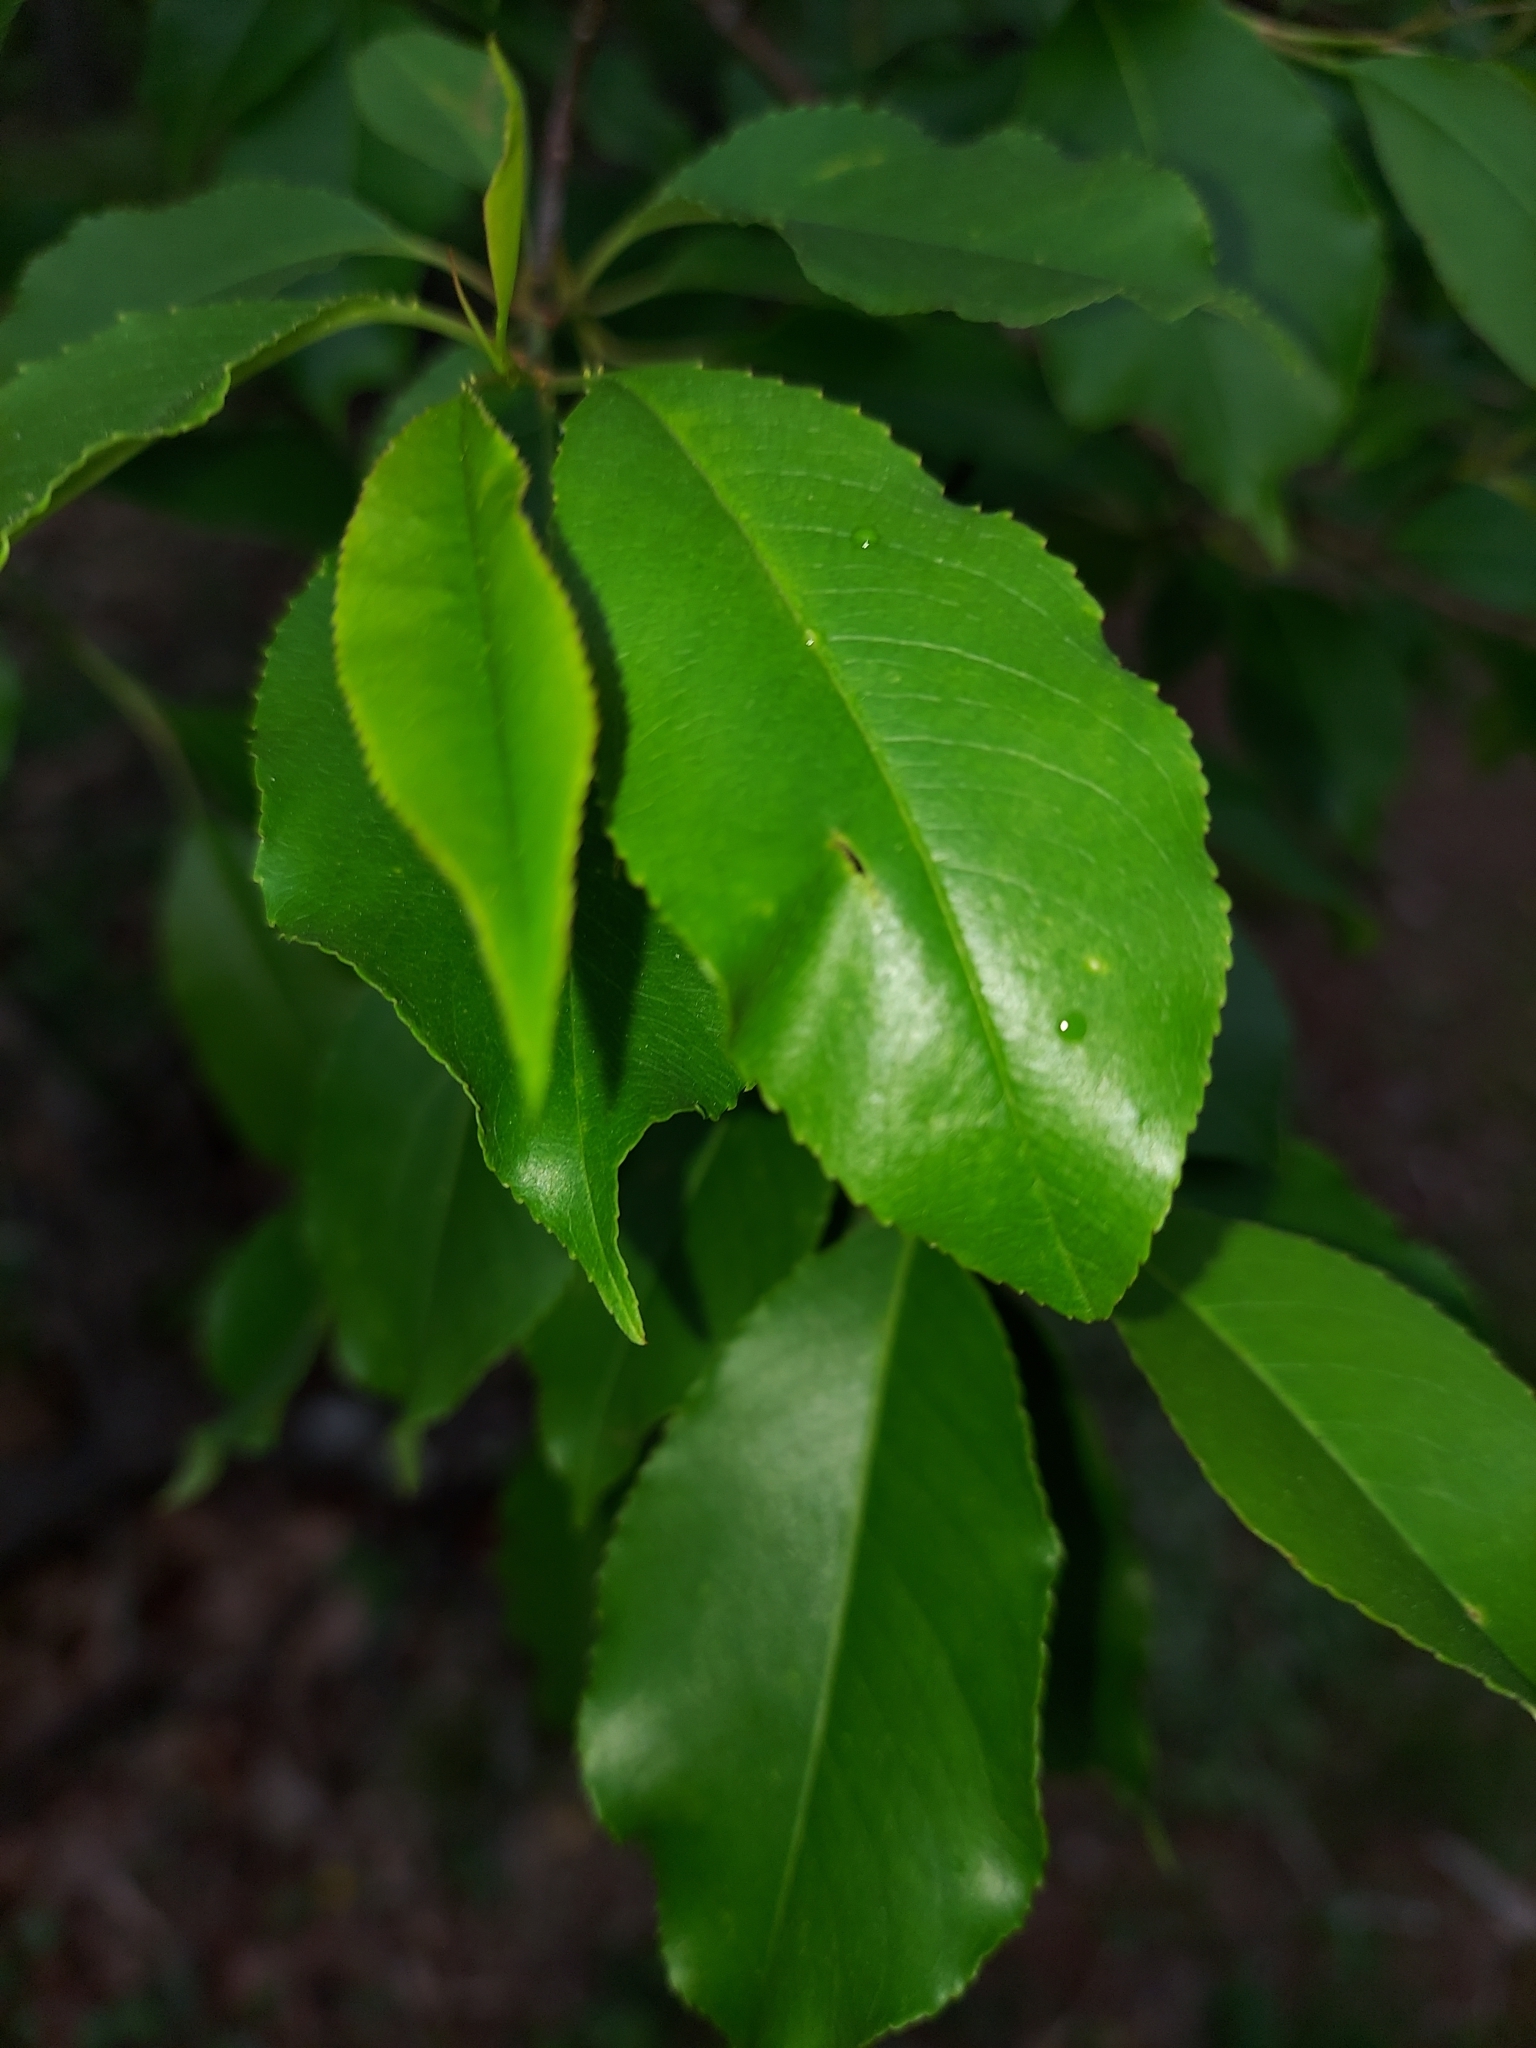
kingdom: Plantae
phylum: Tracheophyta
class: Magnoliopsida
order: Rosales
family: Rosaceae
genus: Prunus
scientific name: Prunus serotina
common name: Black cherry
